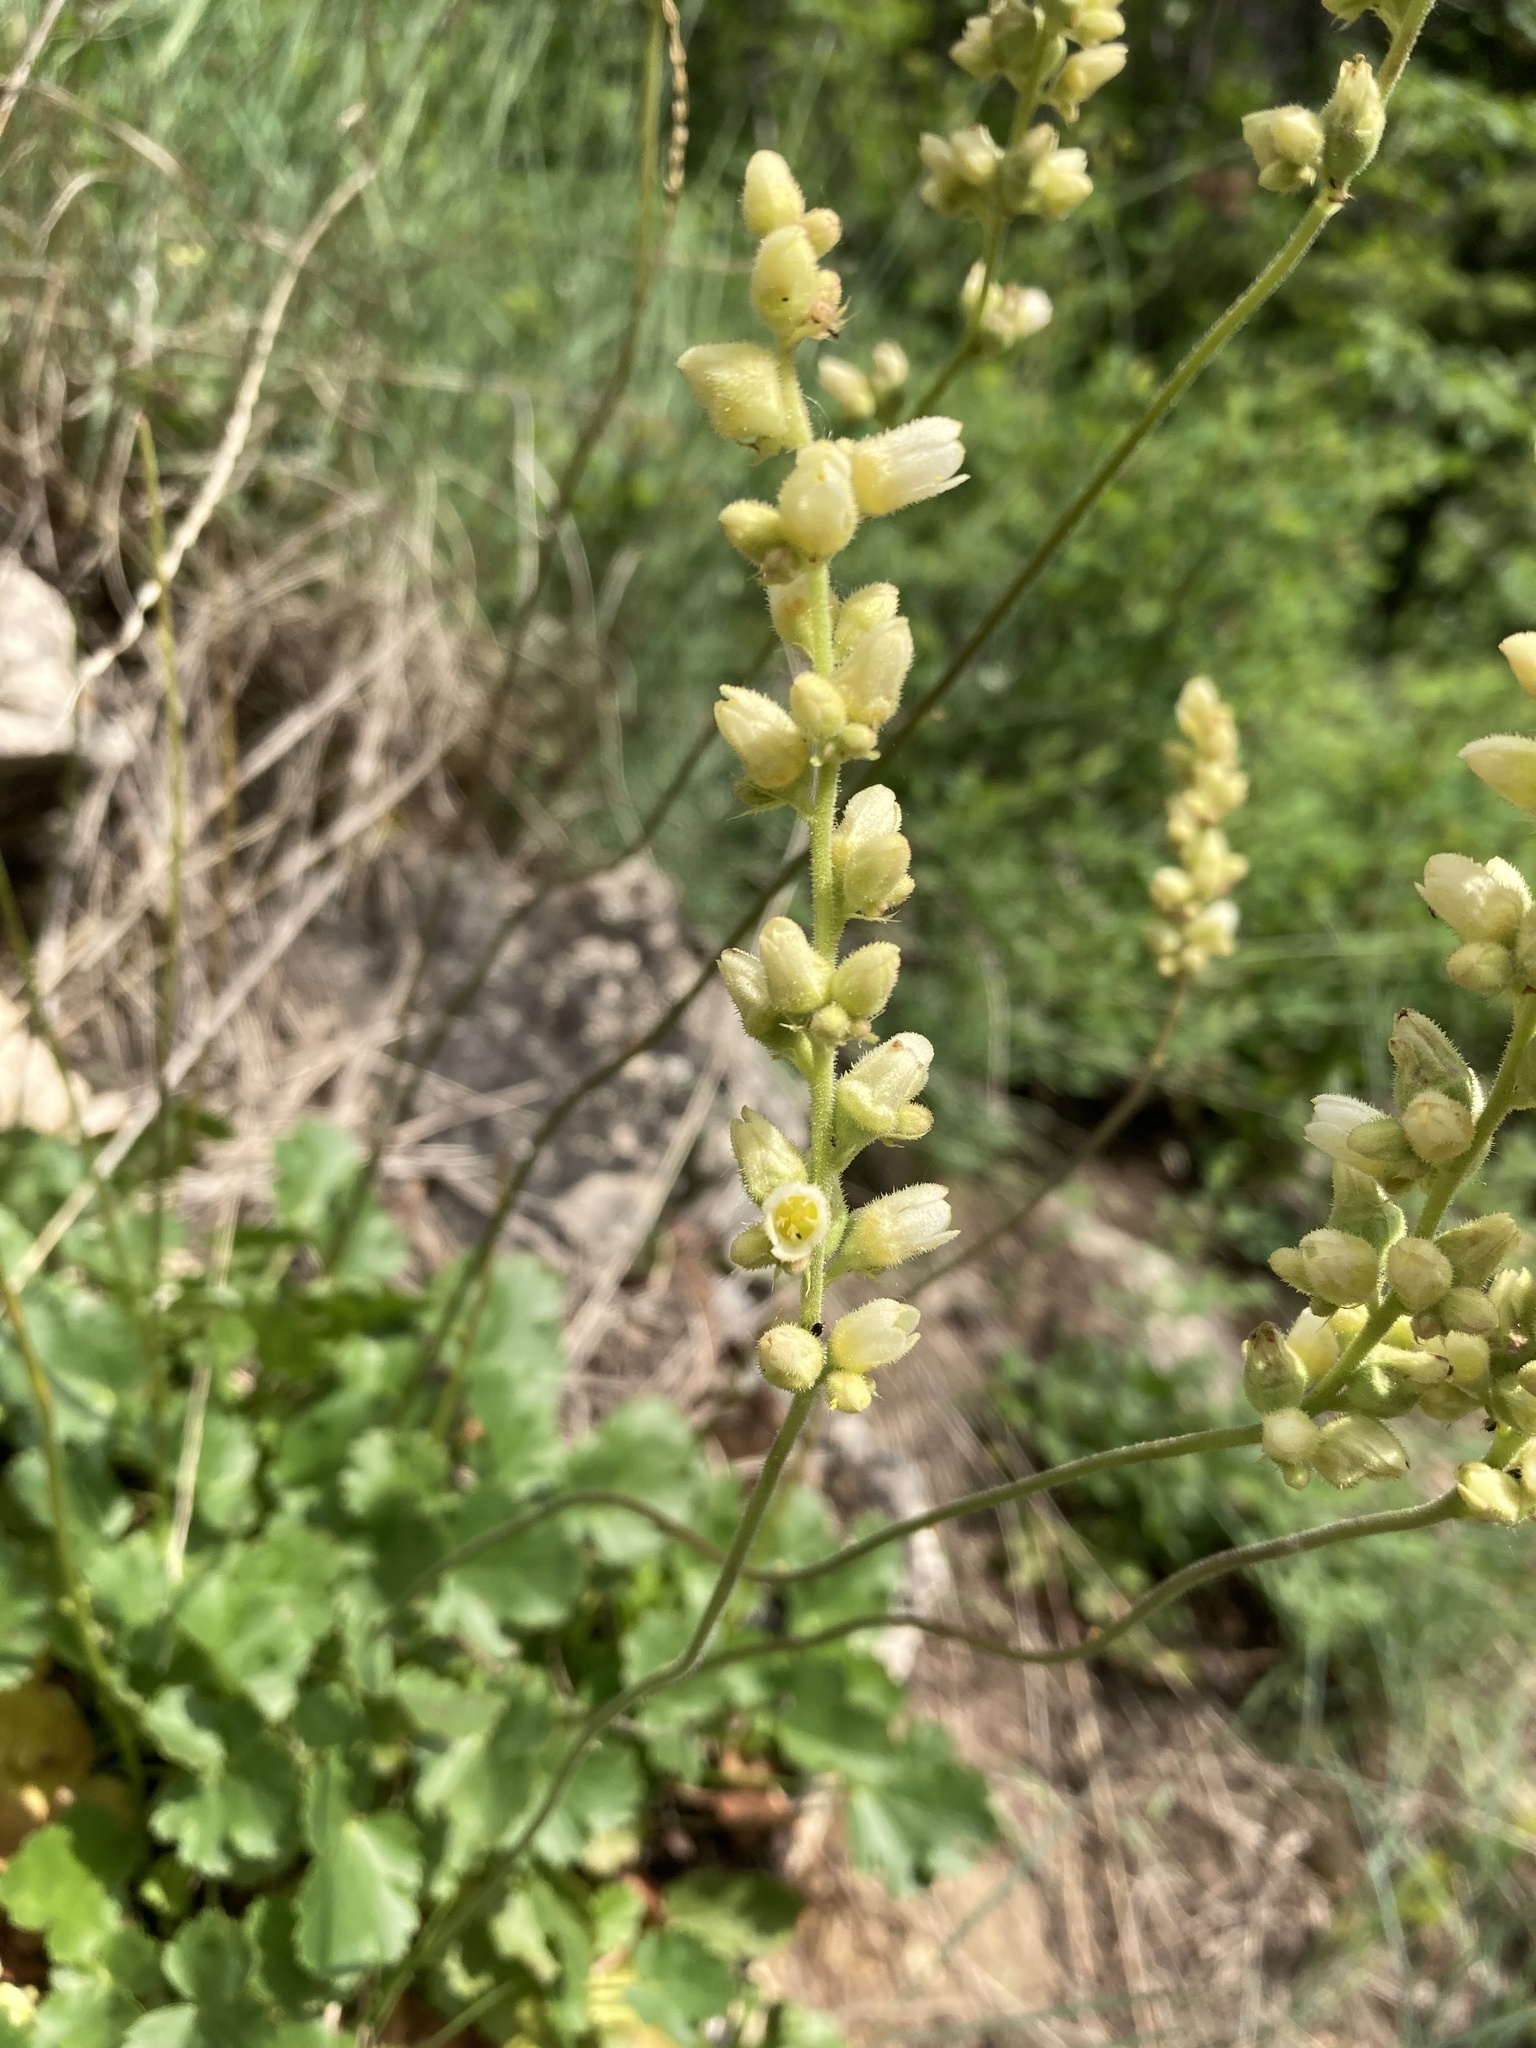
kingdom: Plantae
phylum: Tracheophyta
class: Magnoliopsida
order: Saxifragales
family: Saxifragaceae
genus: Heuchera
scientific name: Heuchera cylindrica
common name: Mat alumroot
